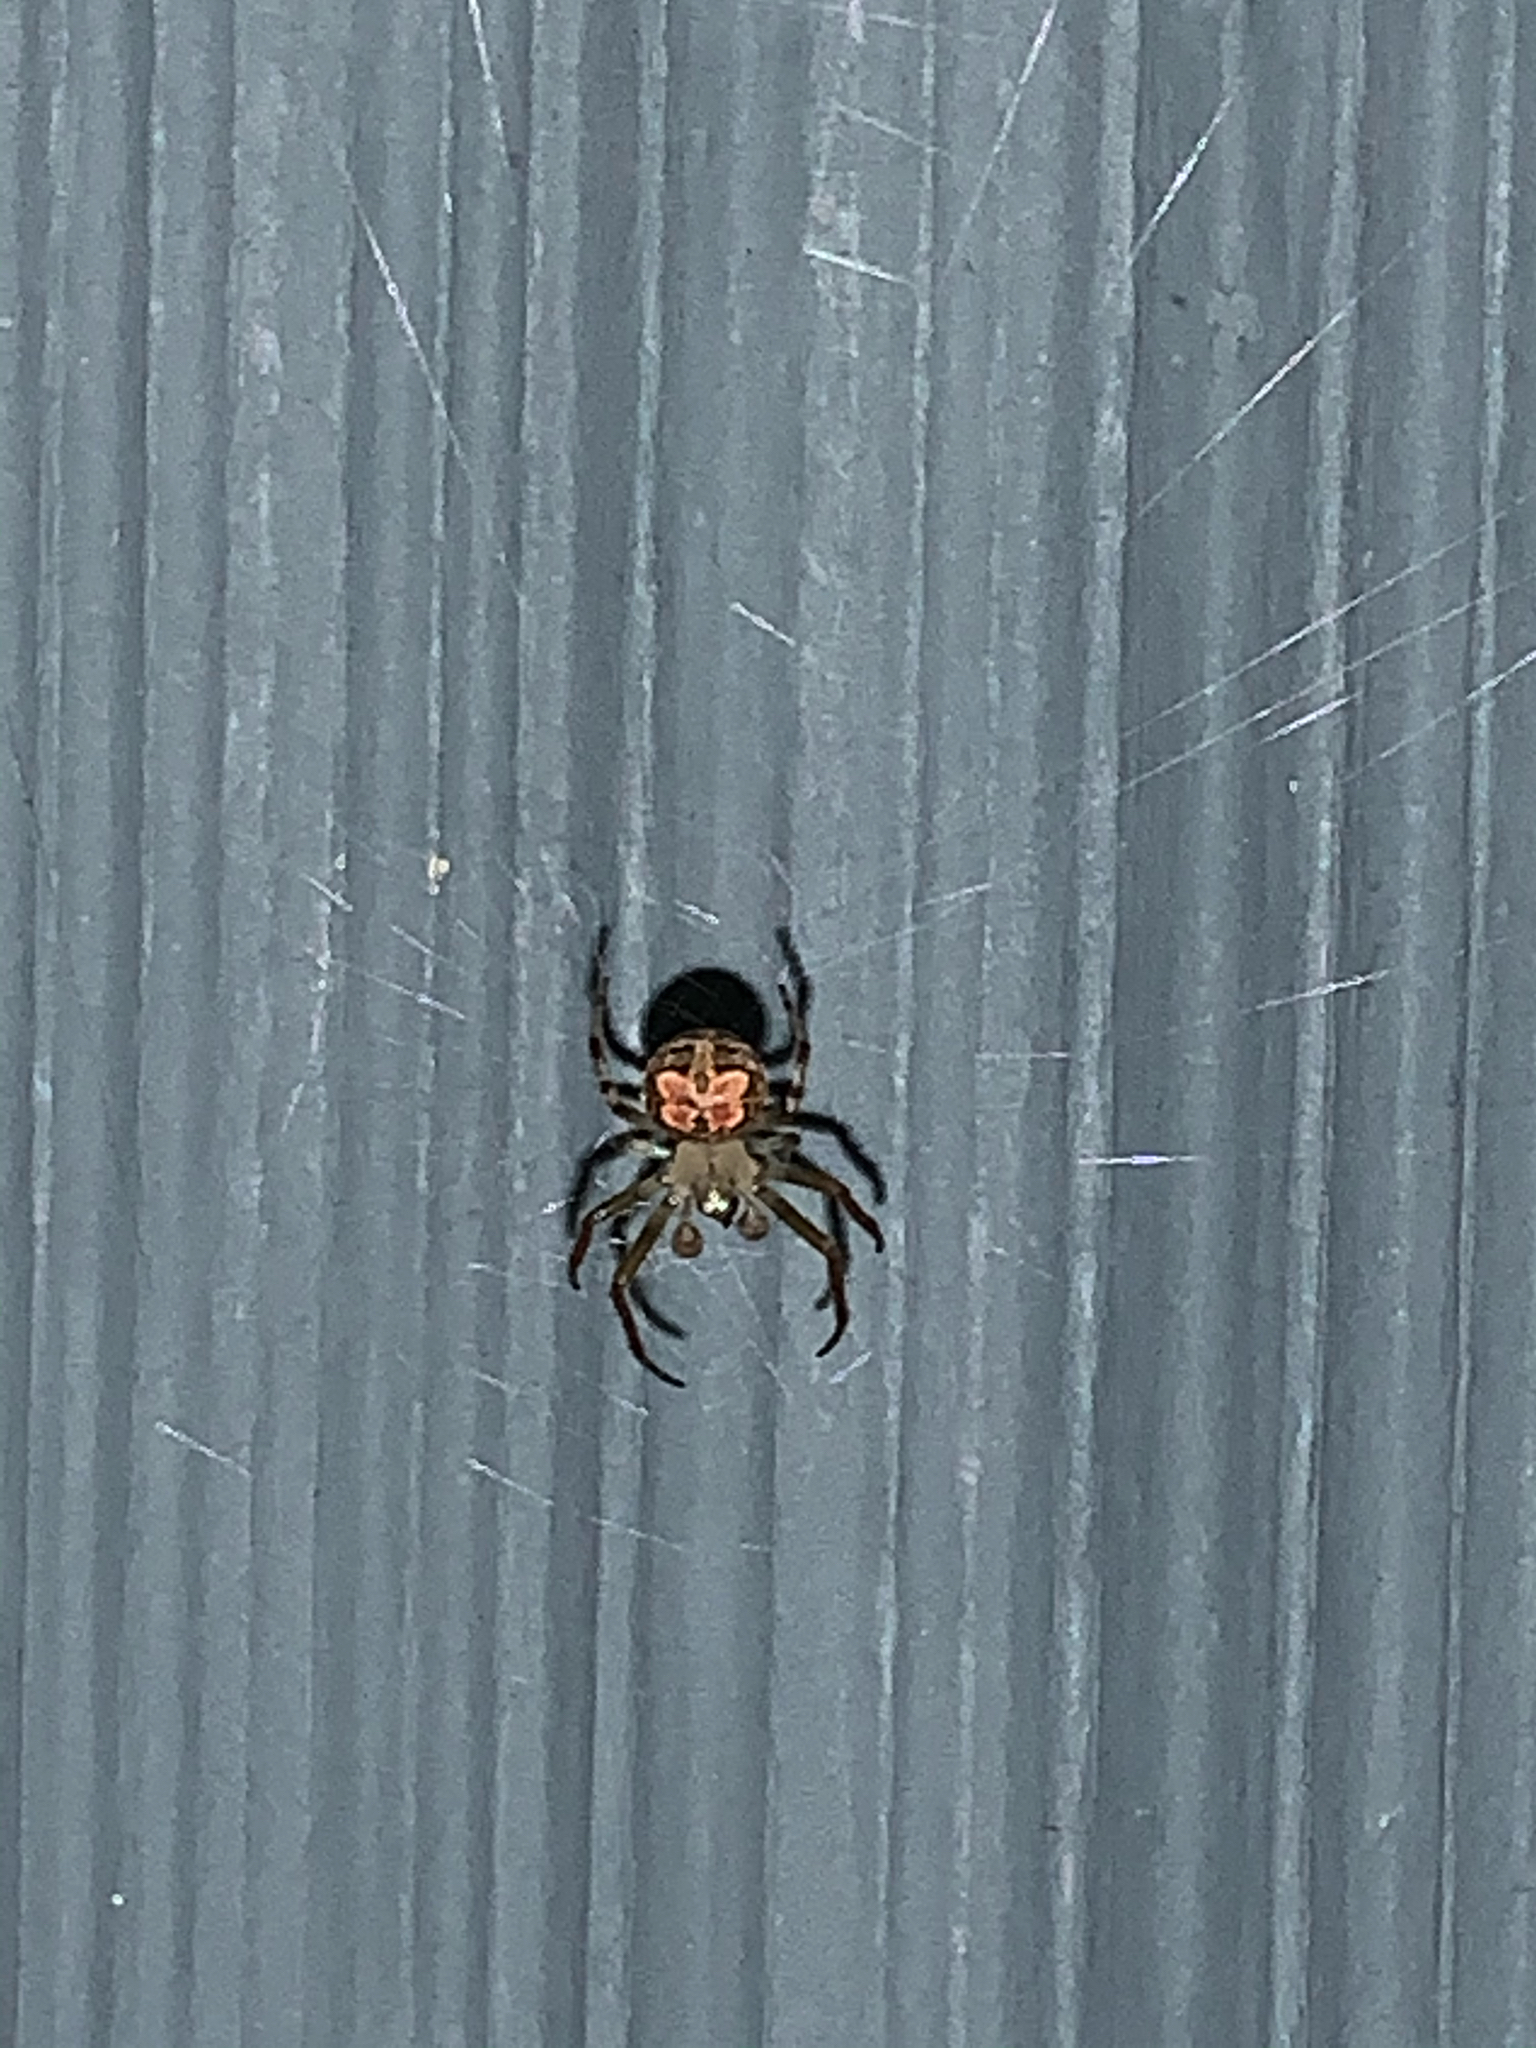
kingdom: Animalia
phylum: Arthropoda
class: Arachnida
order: Araneae
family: Araneidae
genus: Araneus
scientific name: Araneus pegnia
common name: Orb weavers
